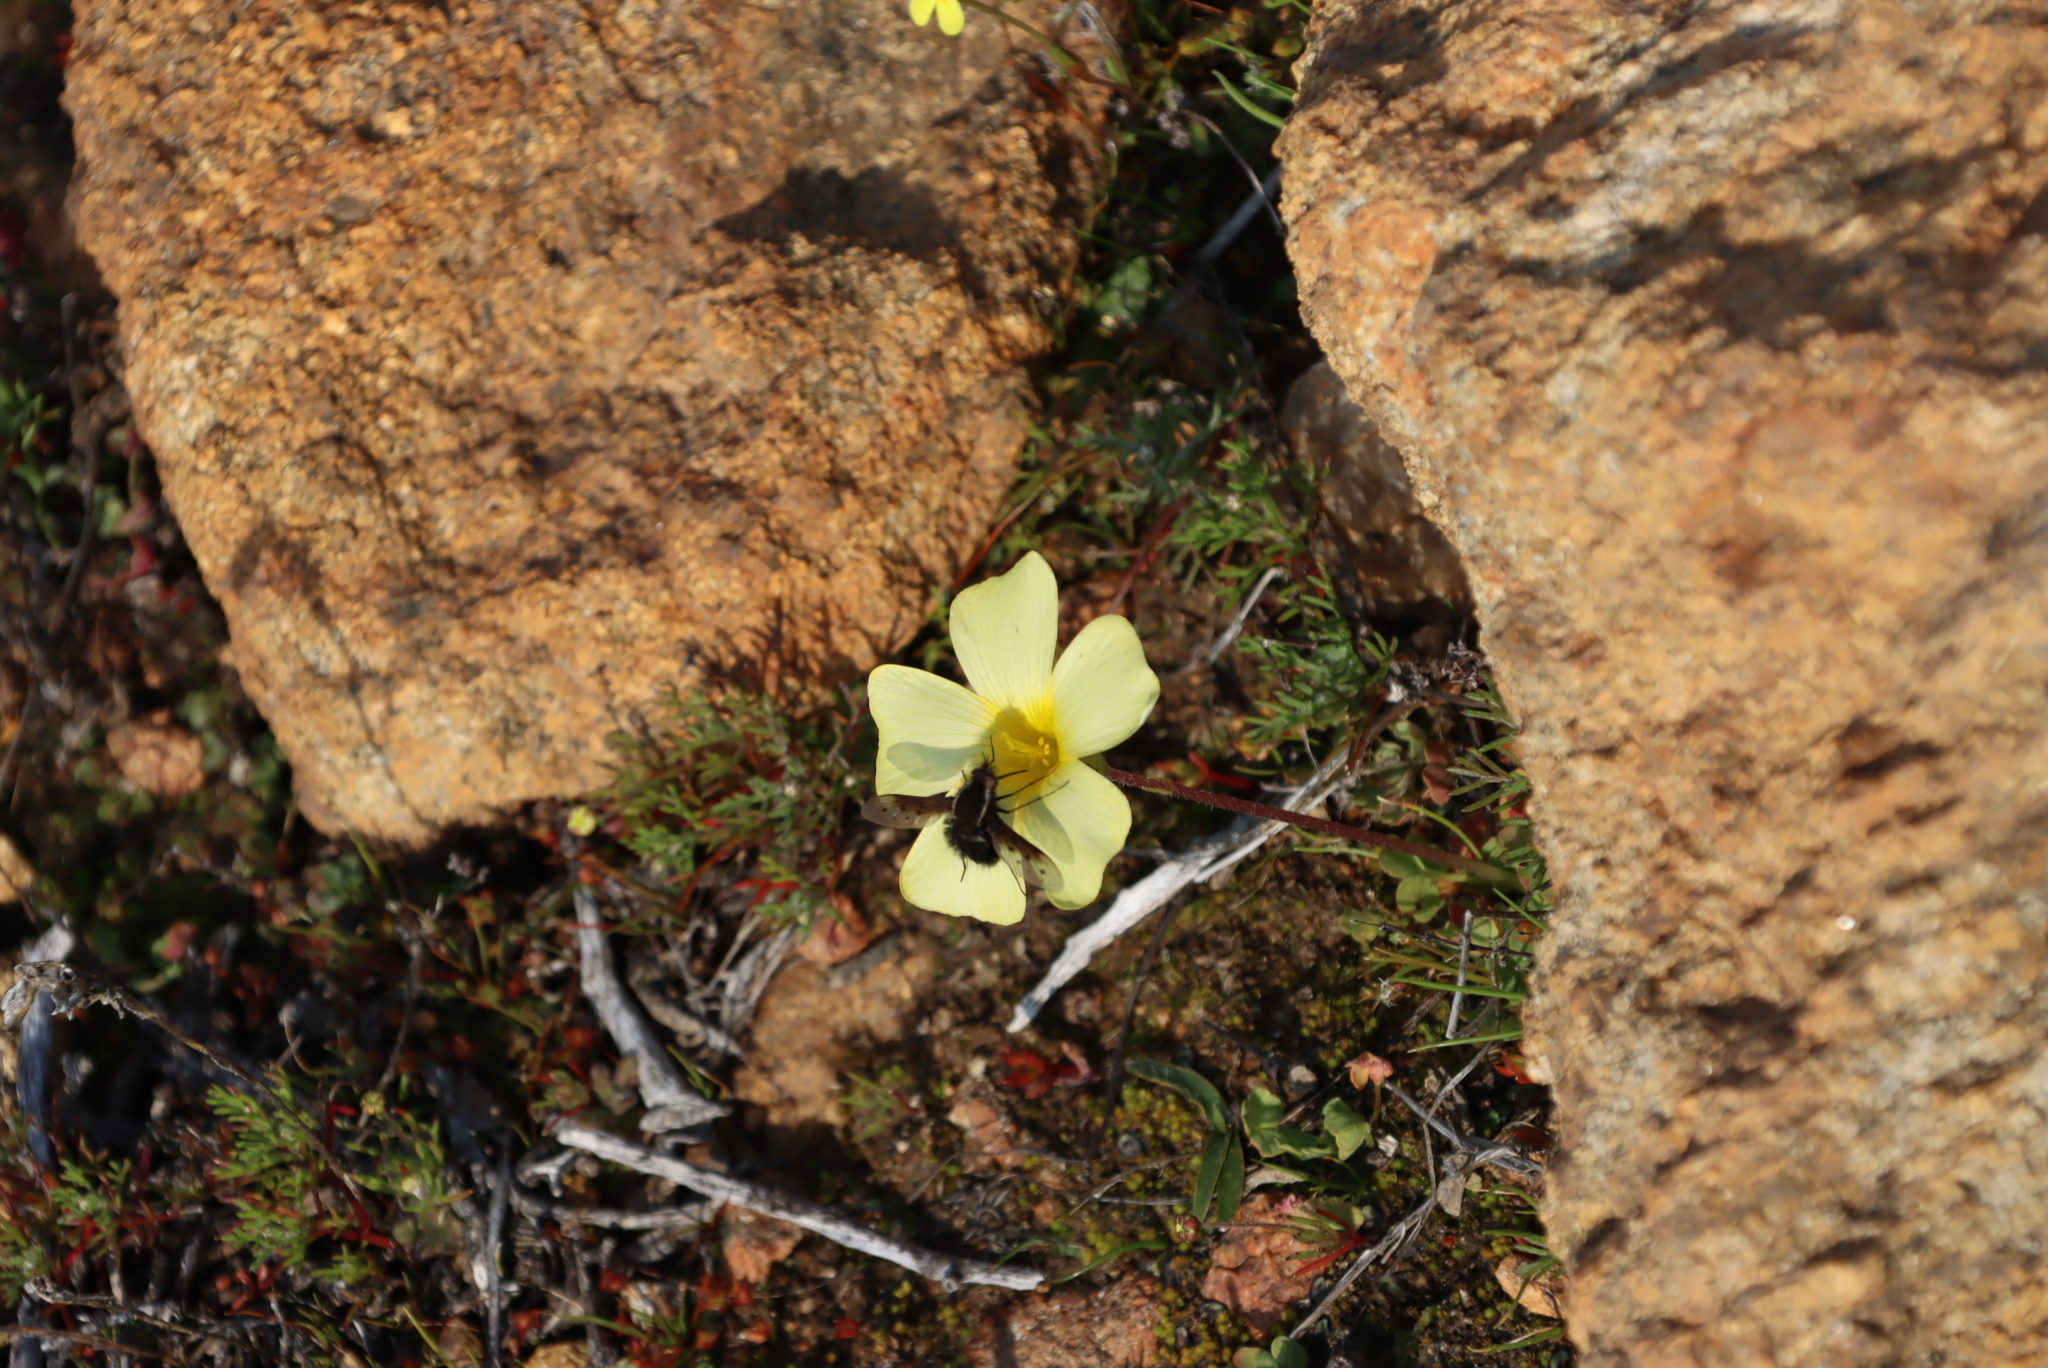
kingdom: Plantae
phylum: Tracheophyta
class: Magnoliopsida
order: Oxalidales
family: Oxalidaceae
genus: Oxalis
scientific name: Oxalis obtusa
